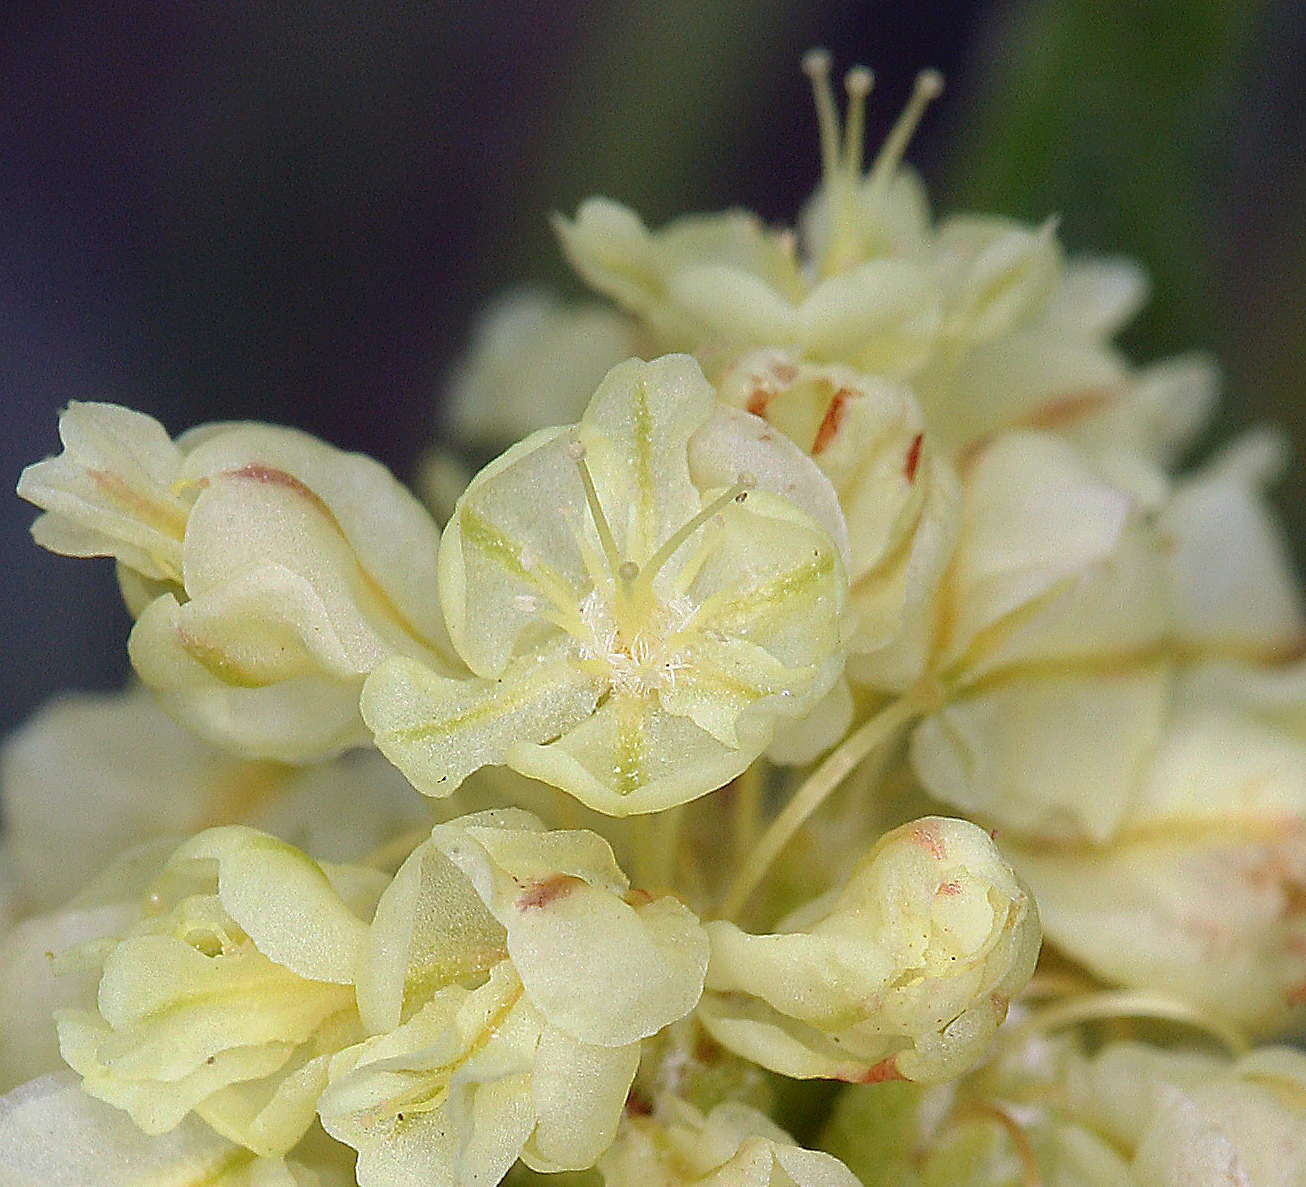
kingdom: Plantae
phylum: Tracheophyta
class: Magnoliopsida
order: Caryophyllales
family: Polygonaceae
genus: Eriogonum
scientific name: Eriogonum ovalifolium
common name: Cushion buckwheat
